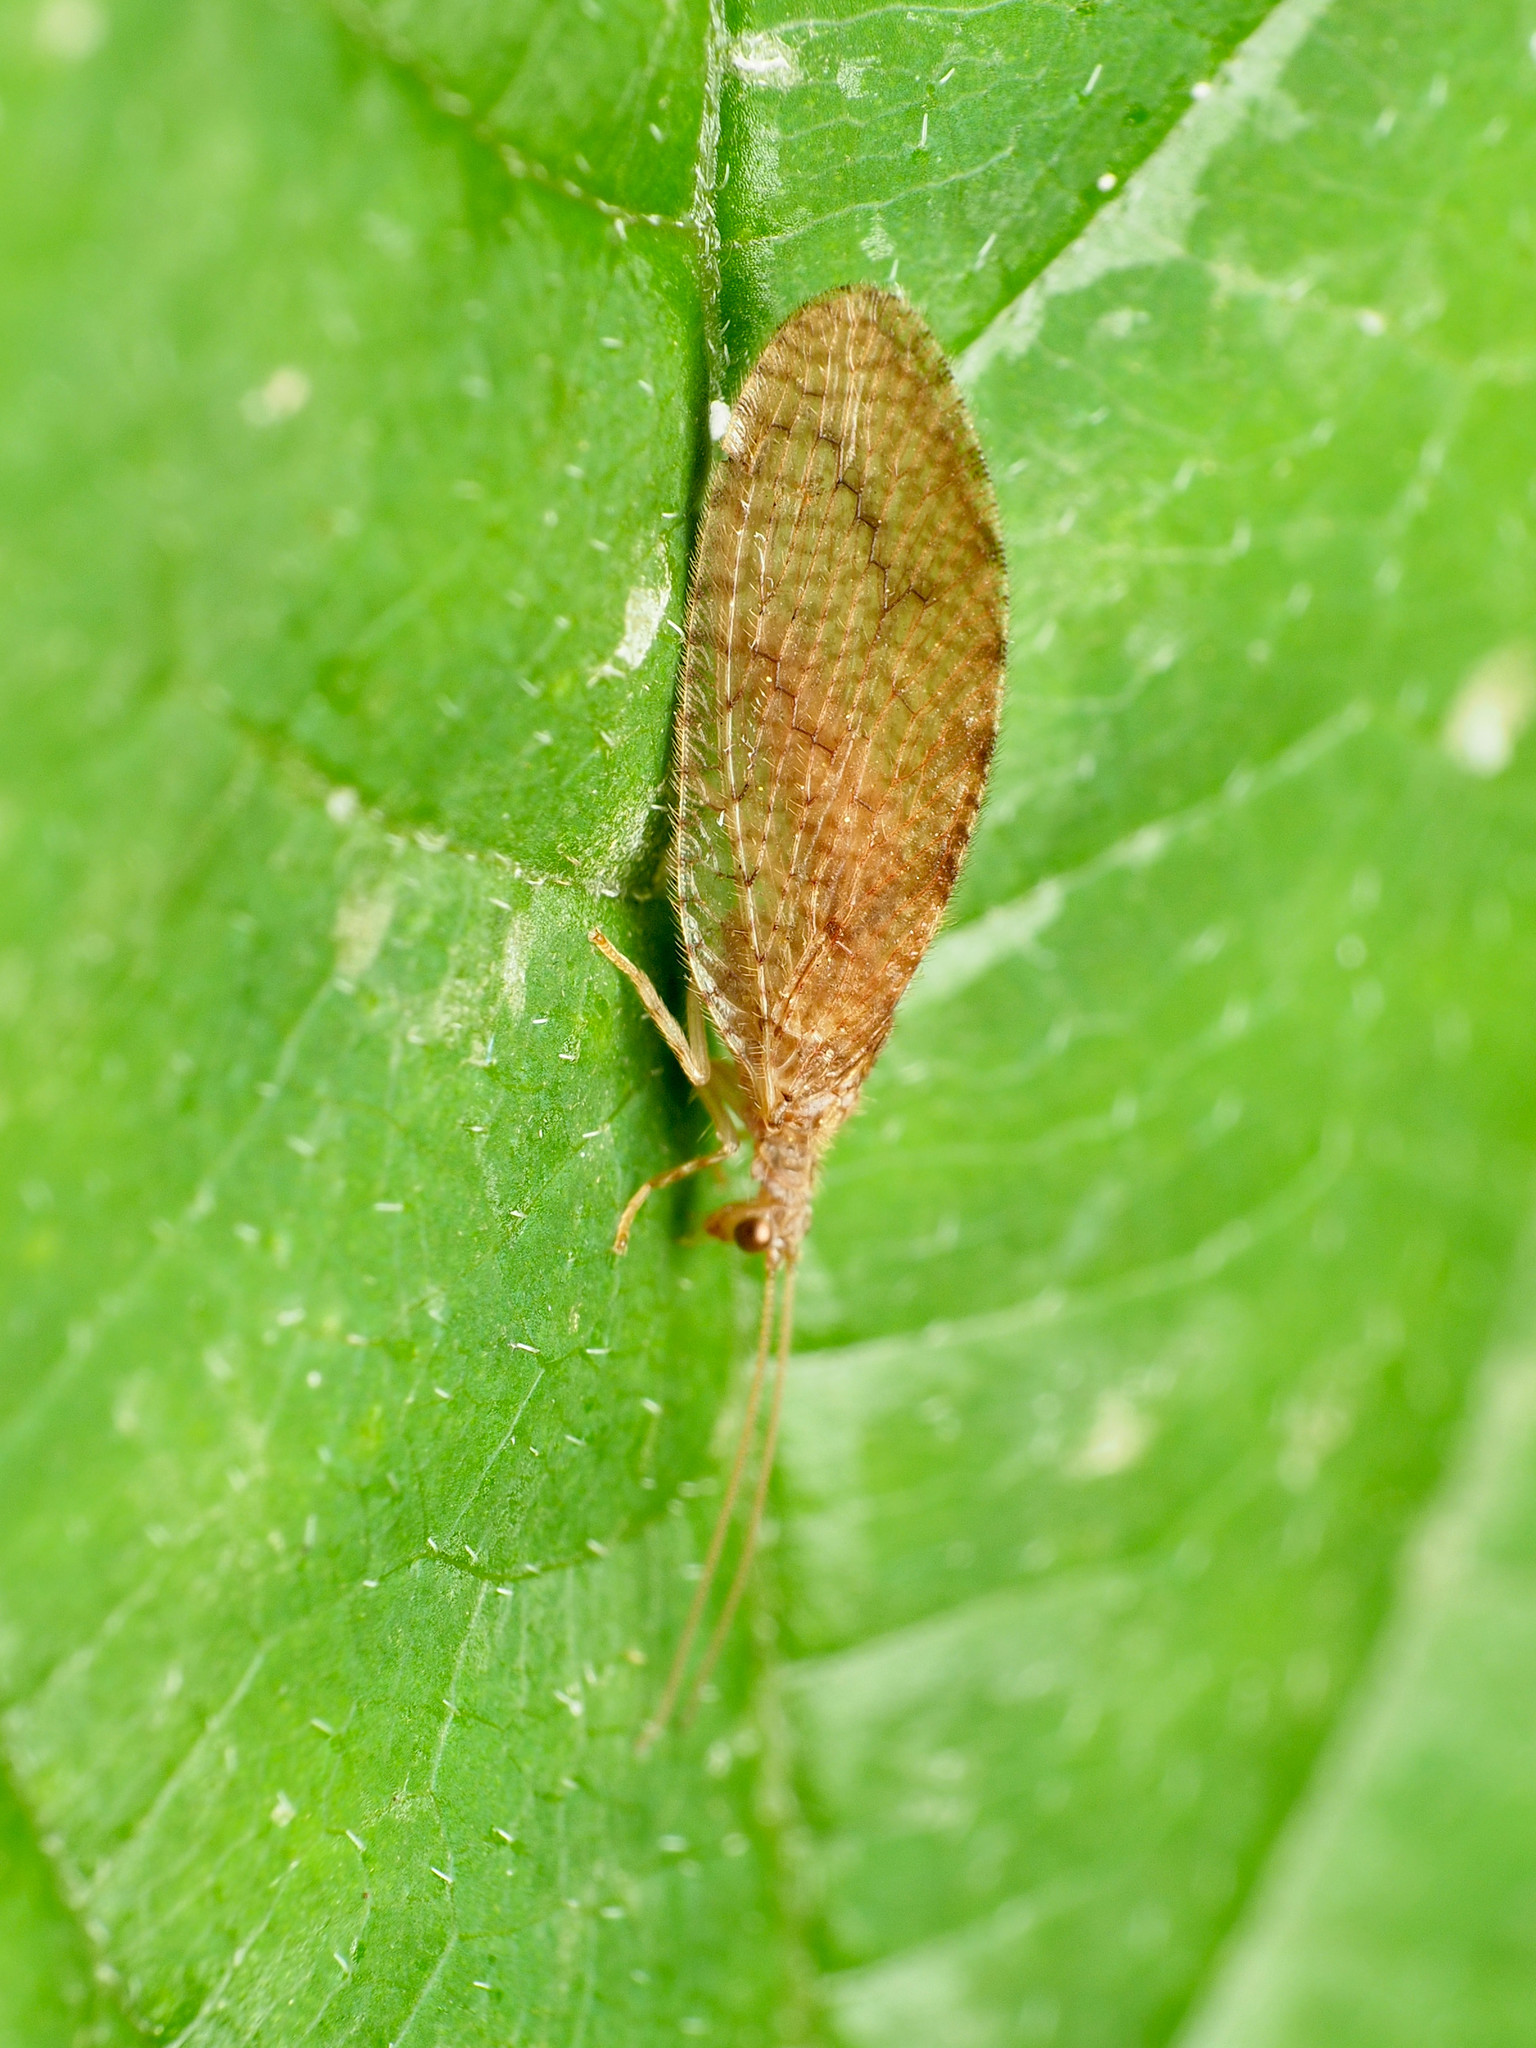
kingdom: Animalia
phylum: Arthropoda
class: Insecta
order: Neuroptera
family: Hemerobiidae
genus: Micromus
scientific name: Micromus posticus
